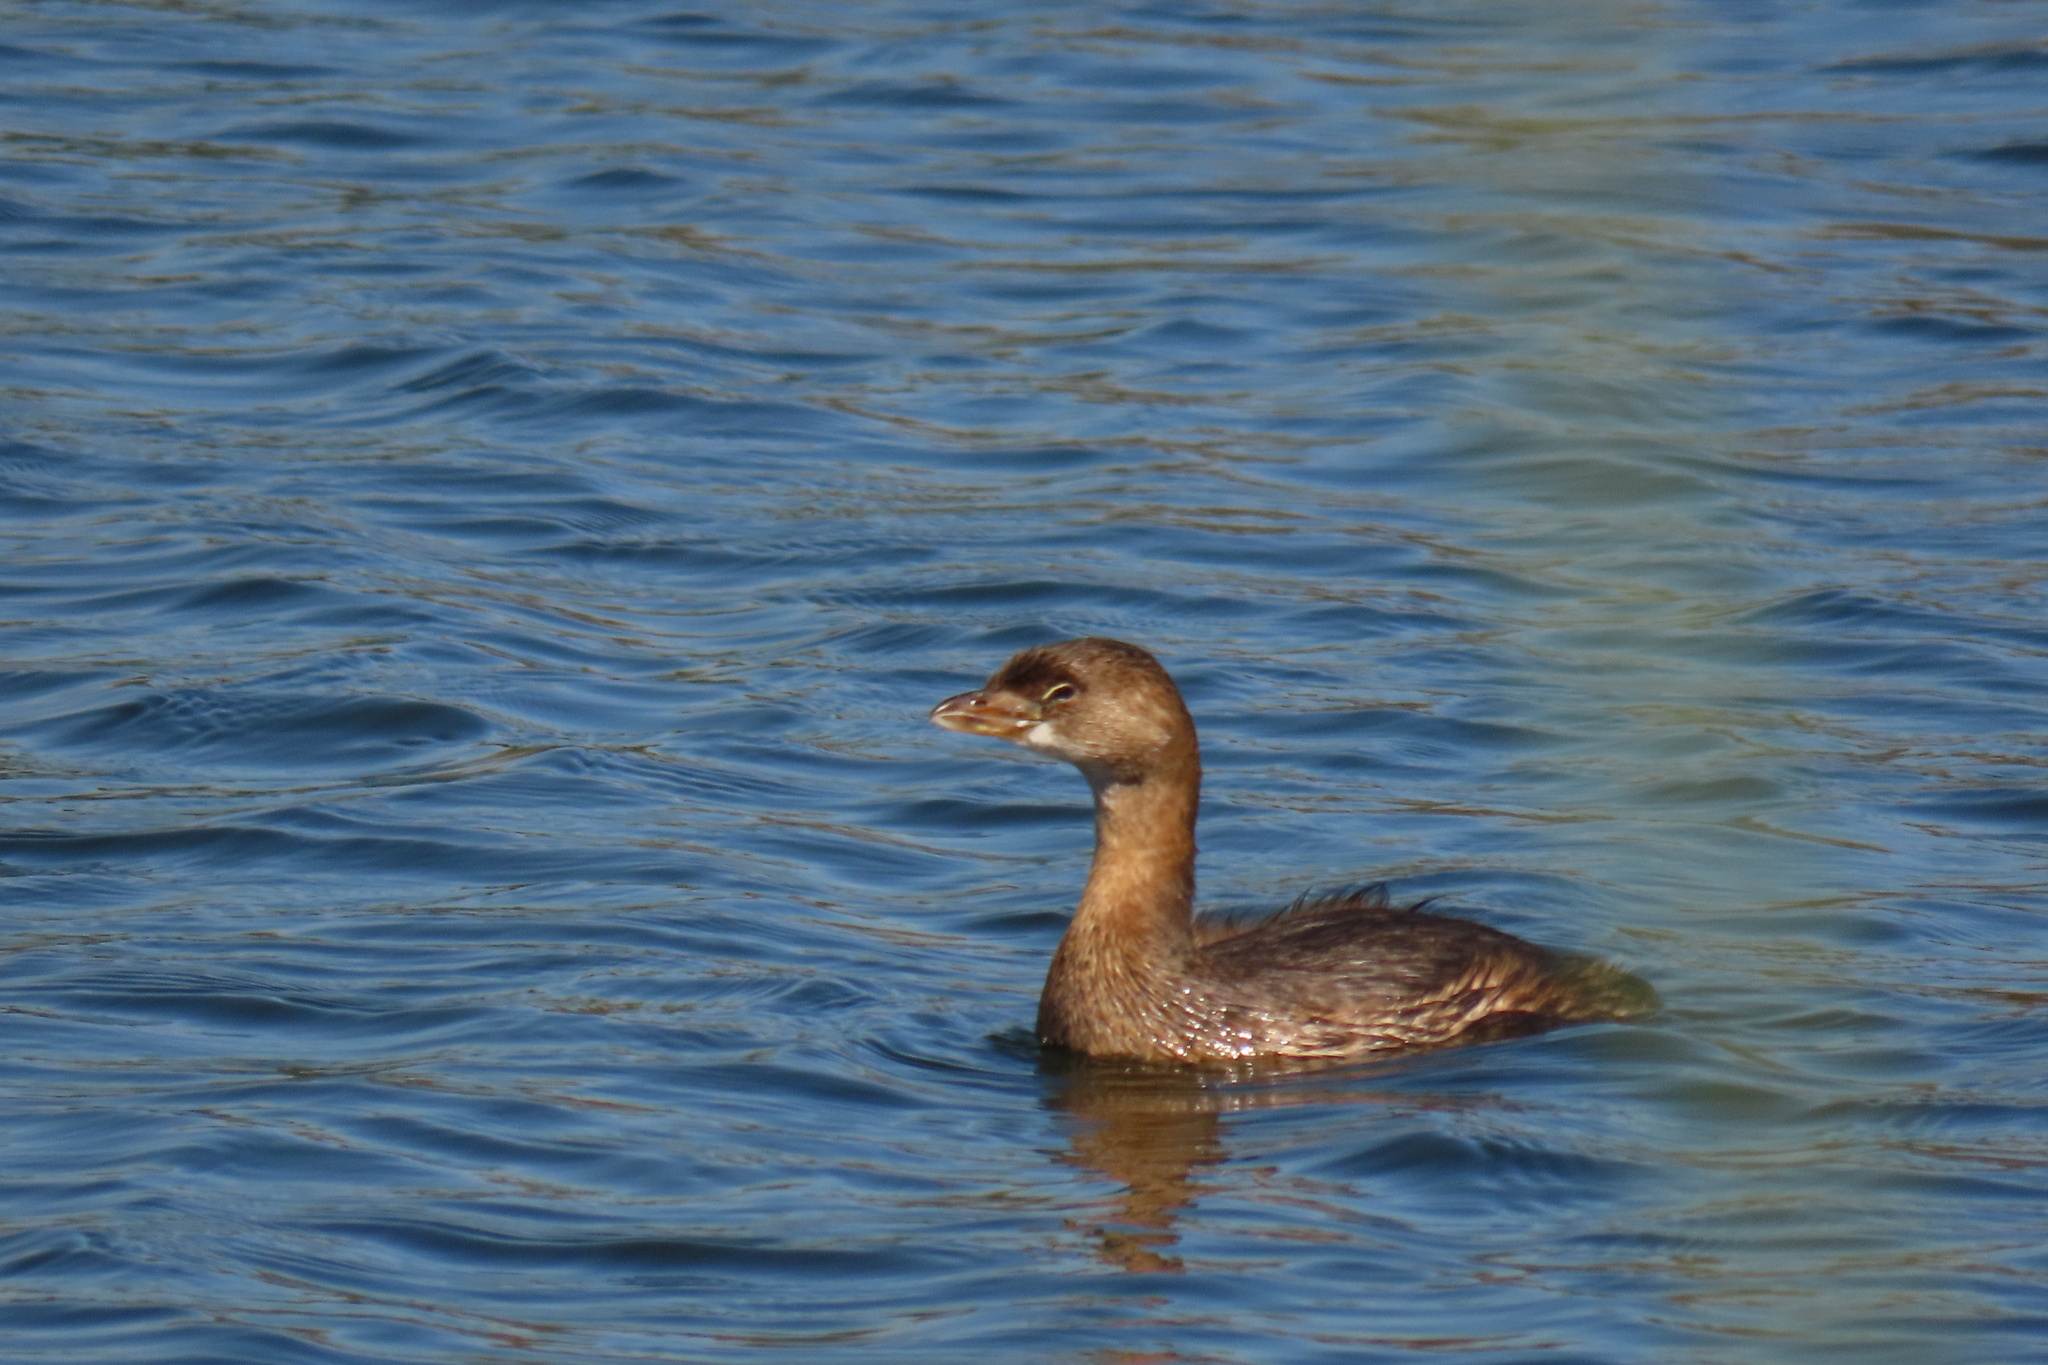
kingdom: Animalia
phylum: Chordata
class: Aves
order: Podicipediformes
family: Podicipedidae
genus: Podilymbus
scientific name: Podilymbus podiceps
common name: Pied-billed grebe
